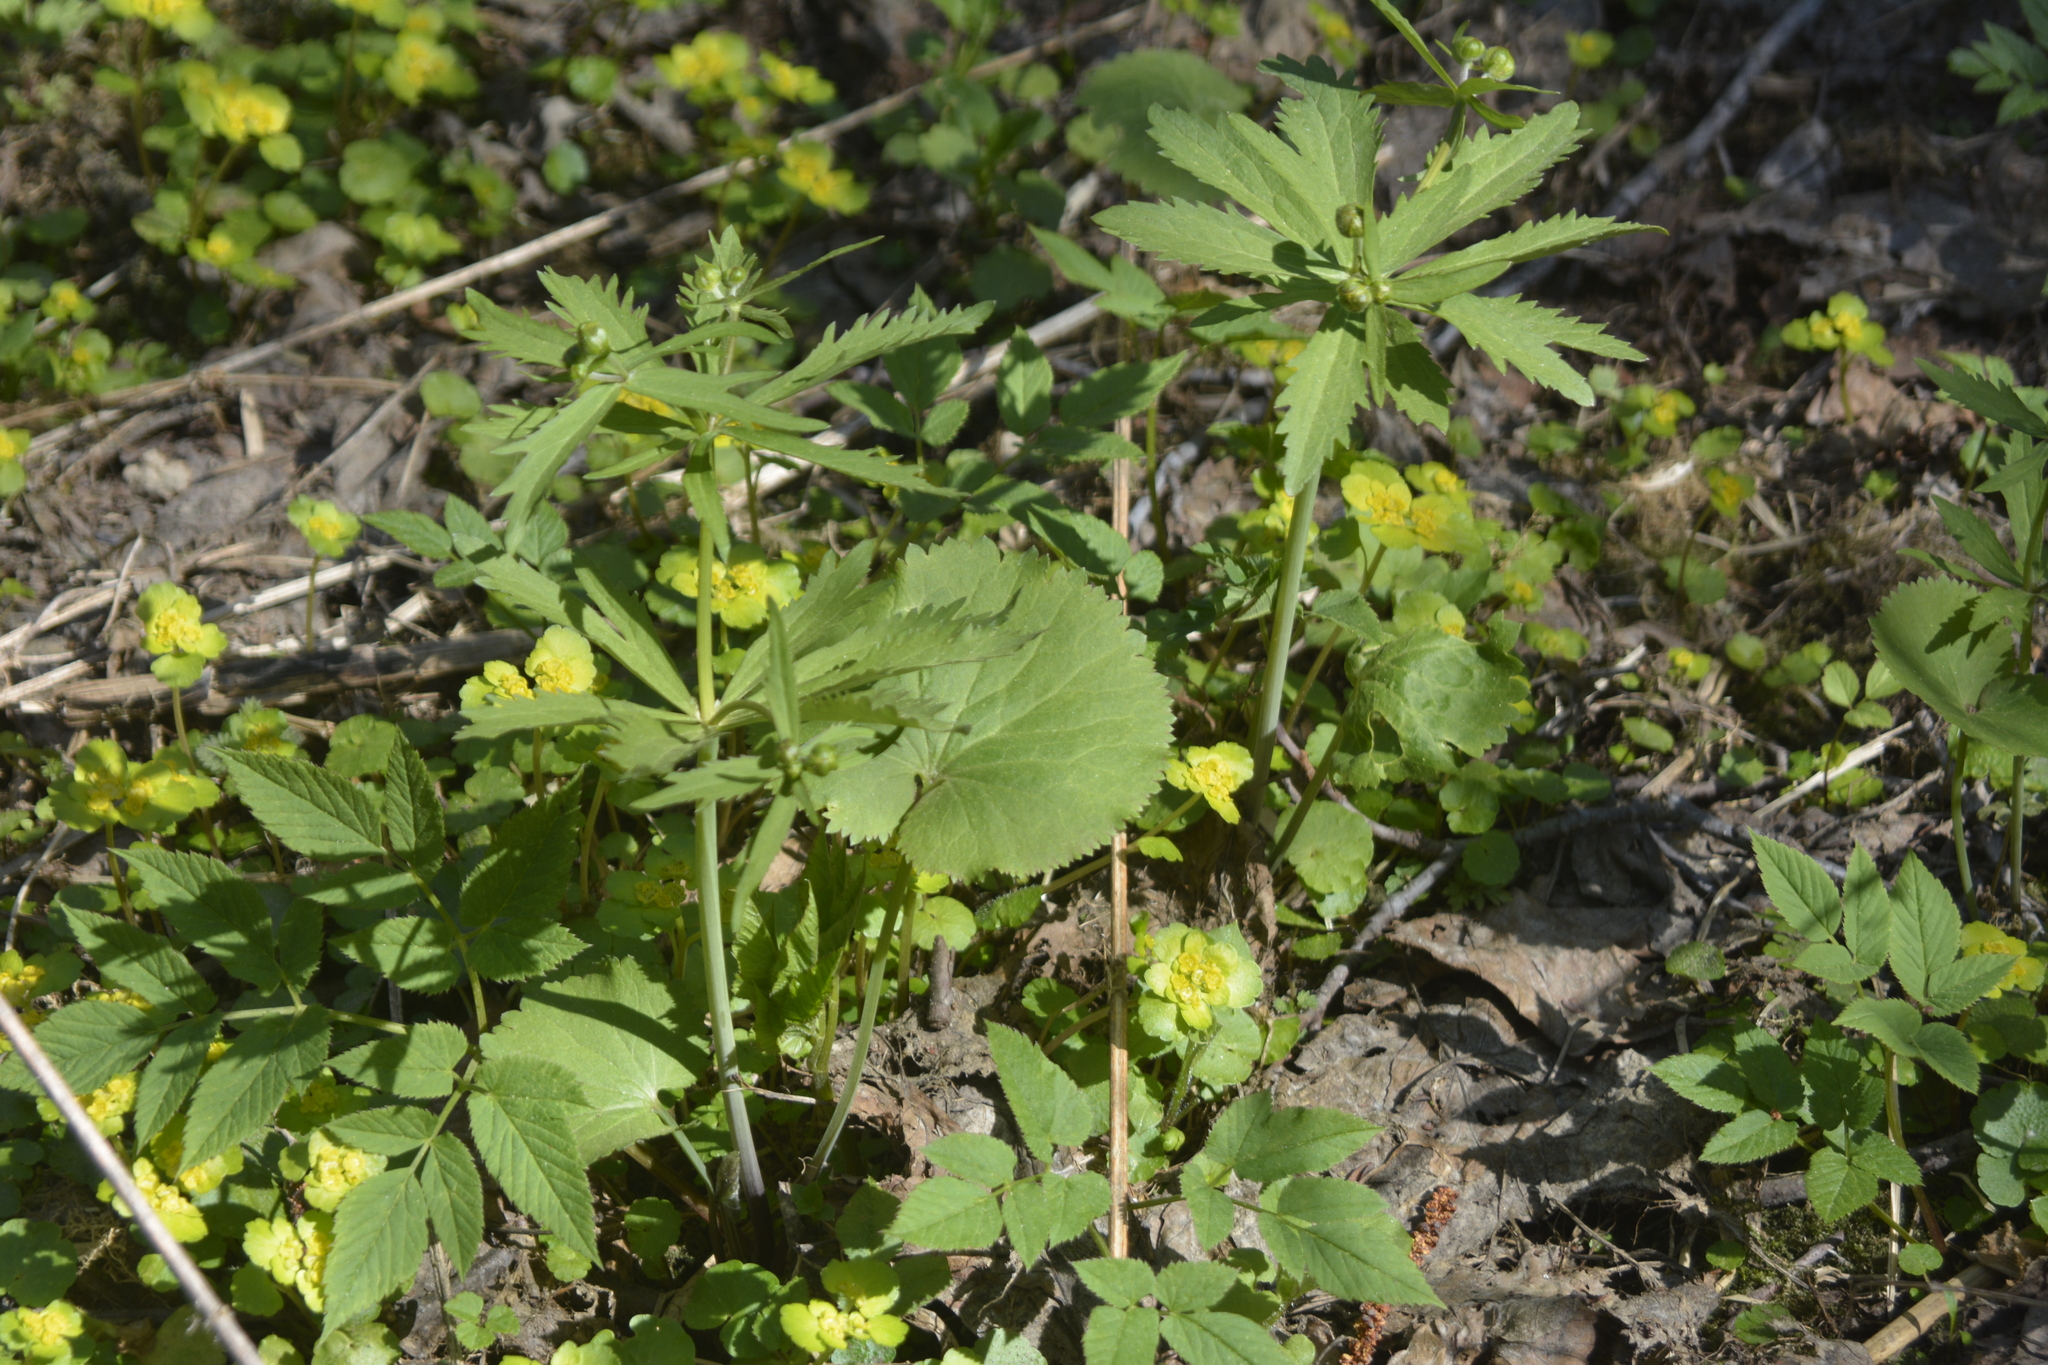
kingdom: Plantae
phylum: Tracheophyta
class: Magnoliopsida
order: Ranunculales
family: Ranunculaceae
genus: Ranunculus
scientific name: Ranunculus cassubicus
